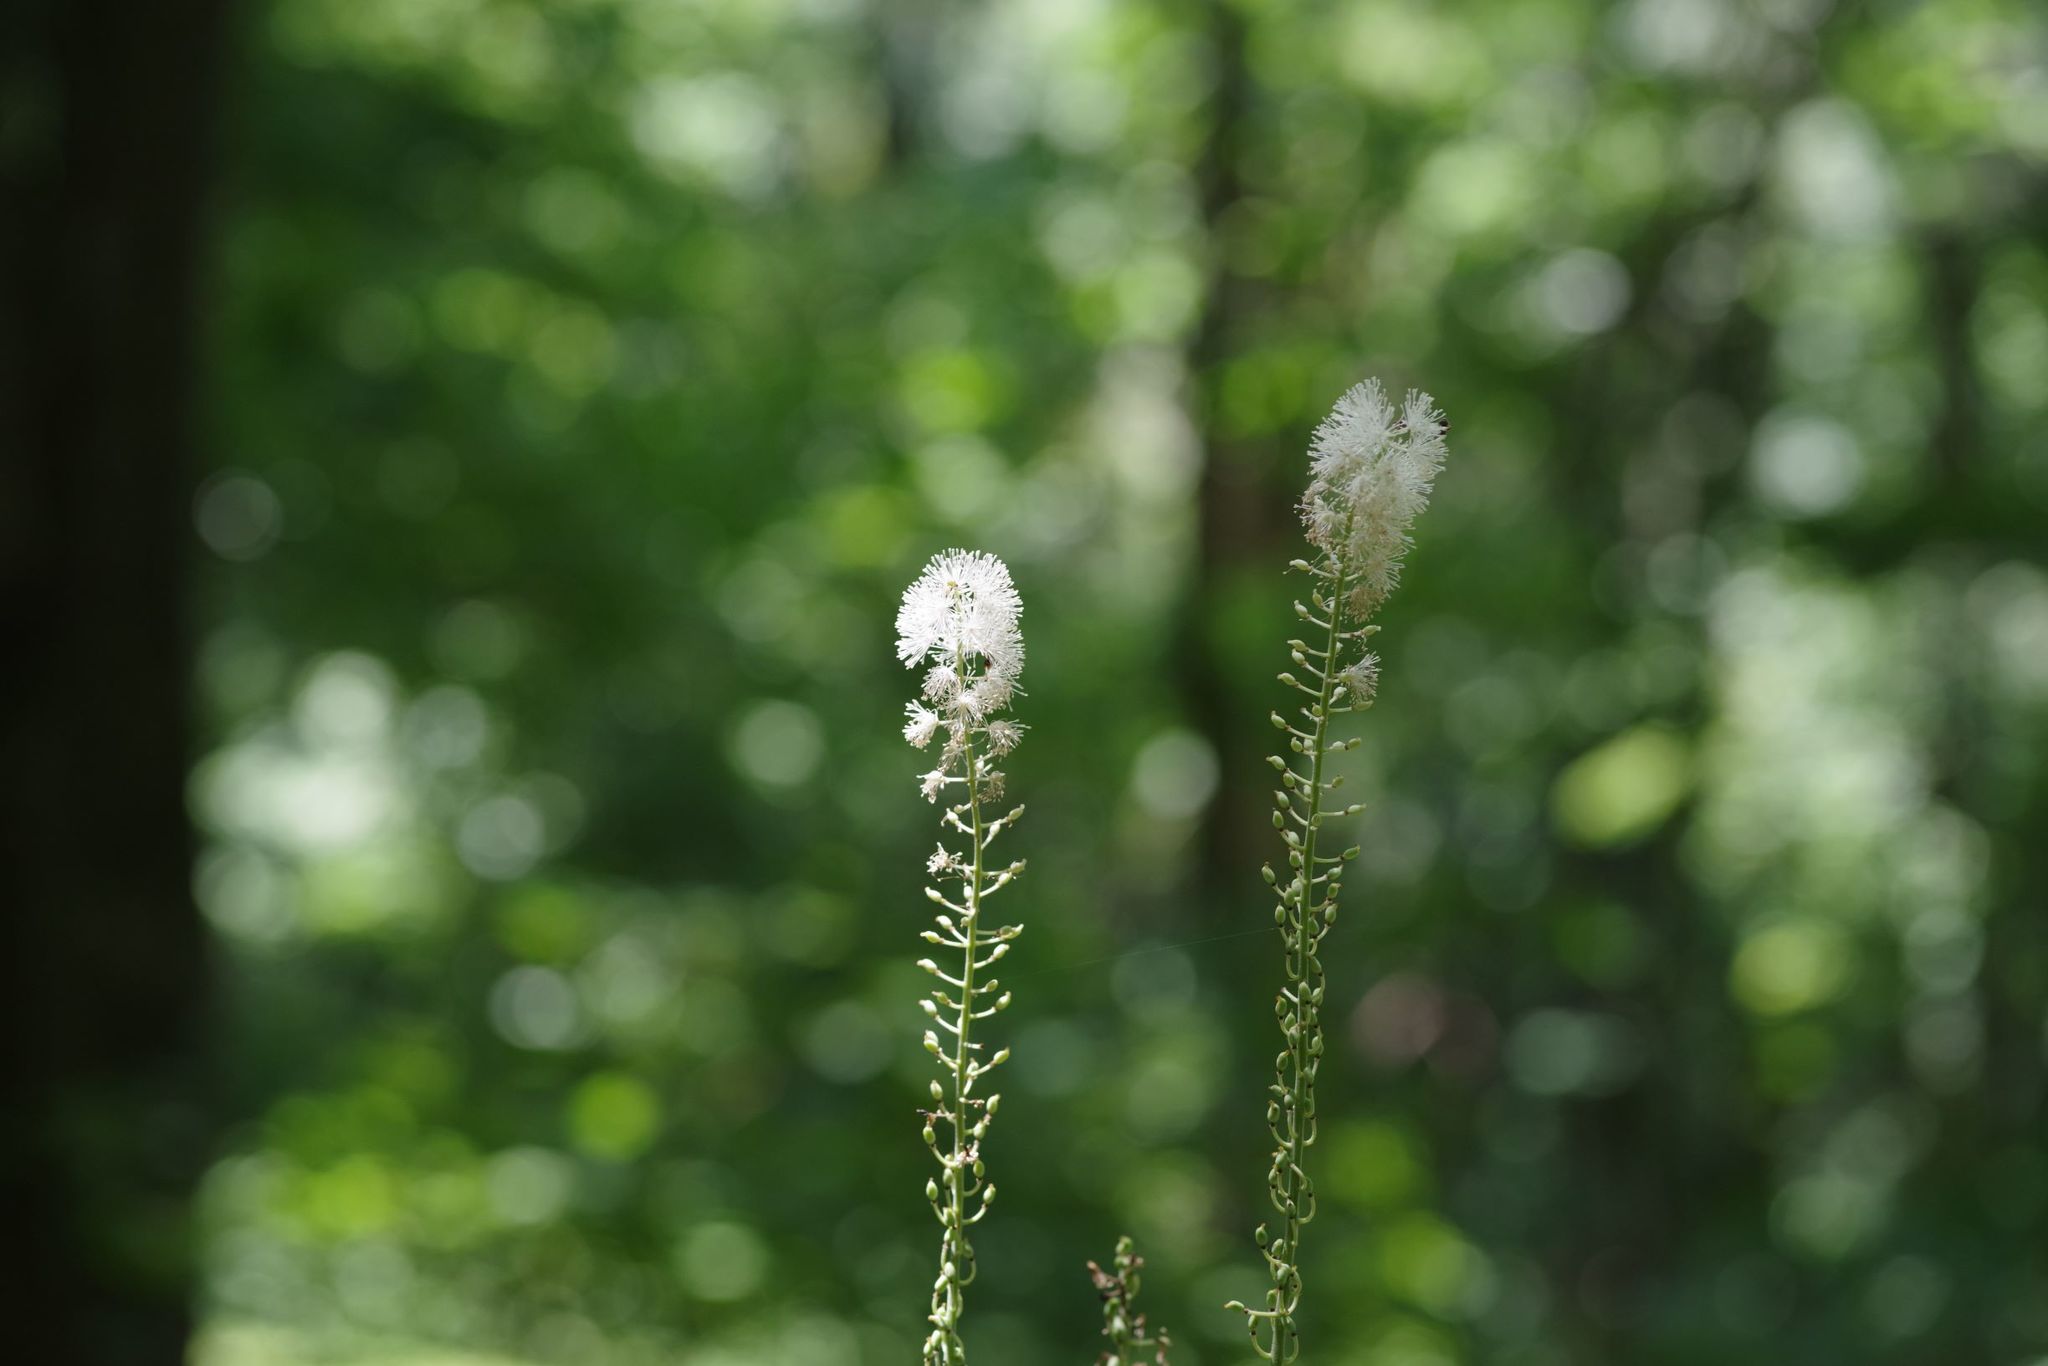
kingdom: Plantae
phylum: Tracheophyta
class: Magnoliopsida
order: Ranunculales
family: Ranunculaceae
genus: Actaea
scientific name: Actaea racemosa
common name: Black cohosh
